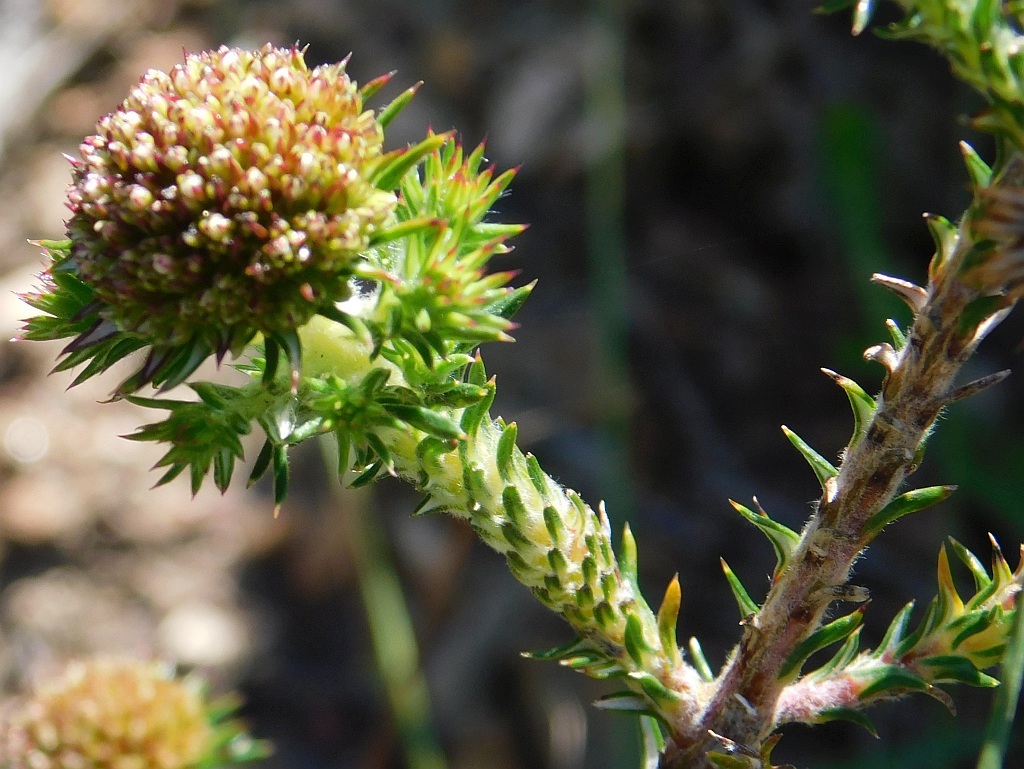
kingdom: Plantae
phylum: Tracheophyta
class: Magnoliopsida
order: Asterales
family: Asteraceae
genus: Stoebe
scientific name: Stoebe aethiopica
